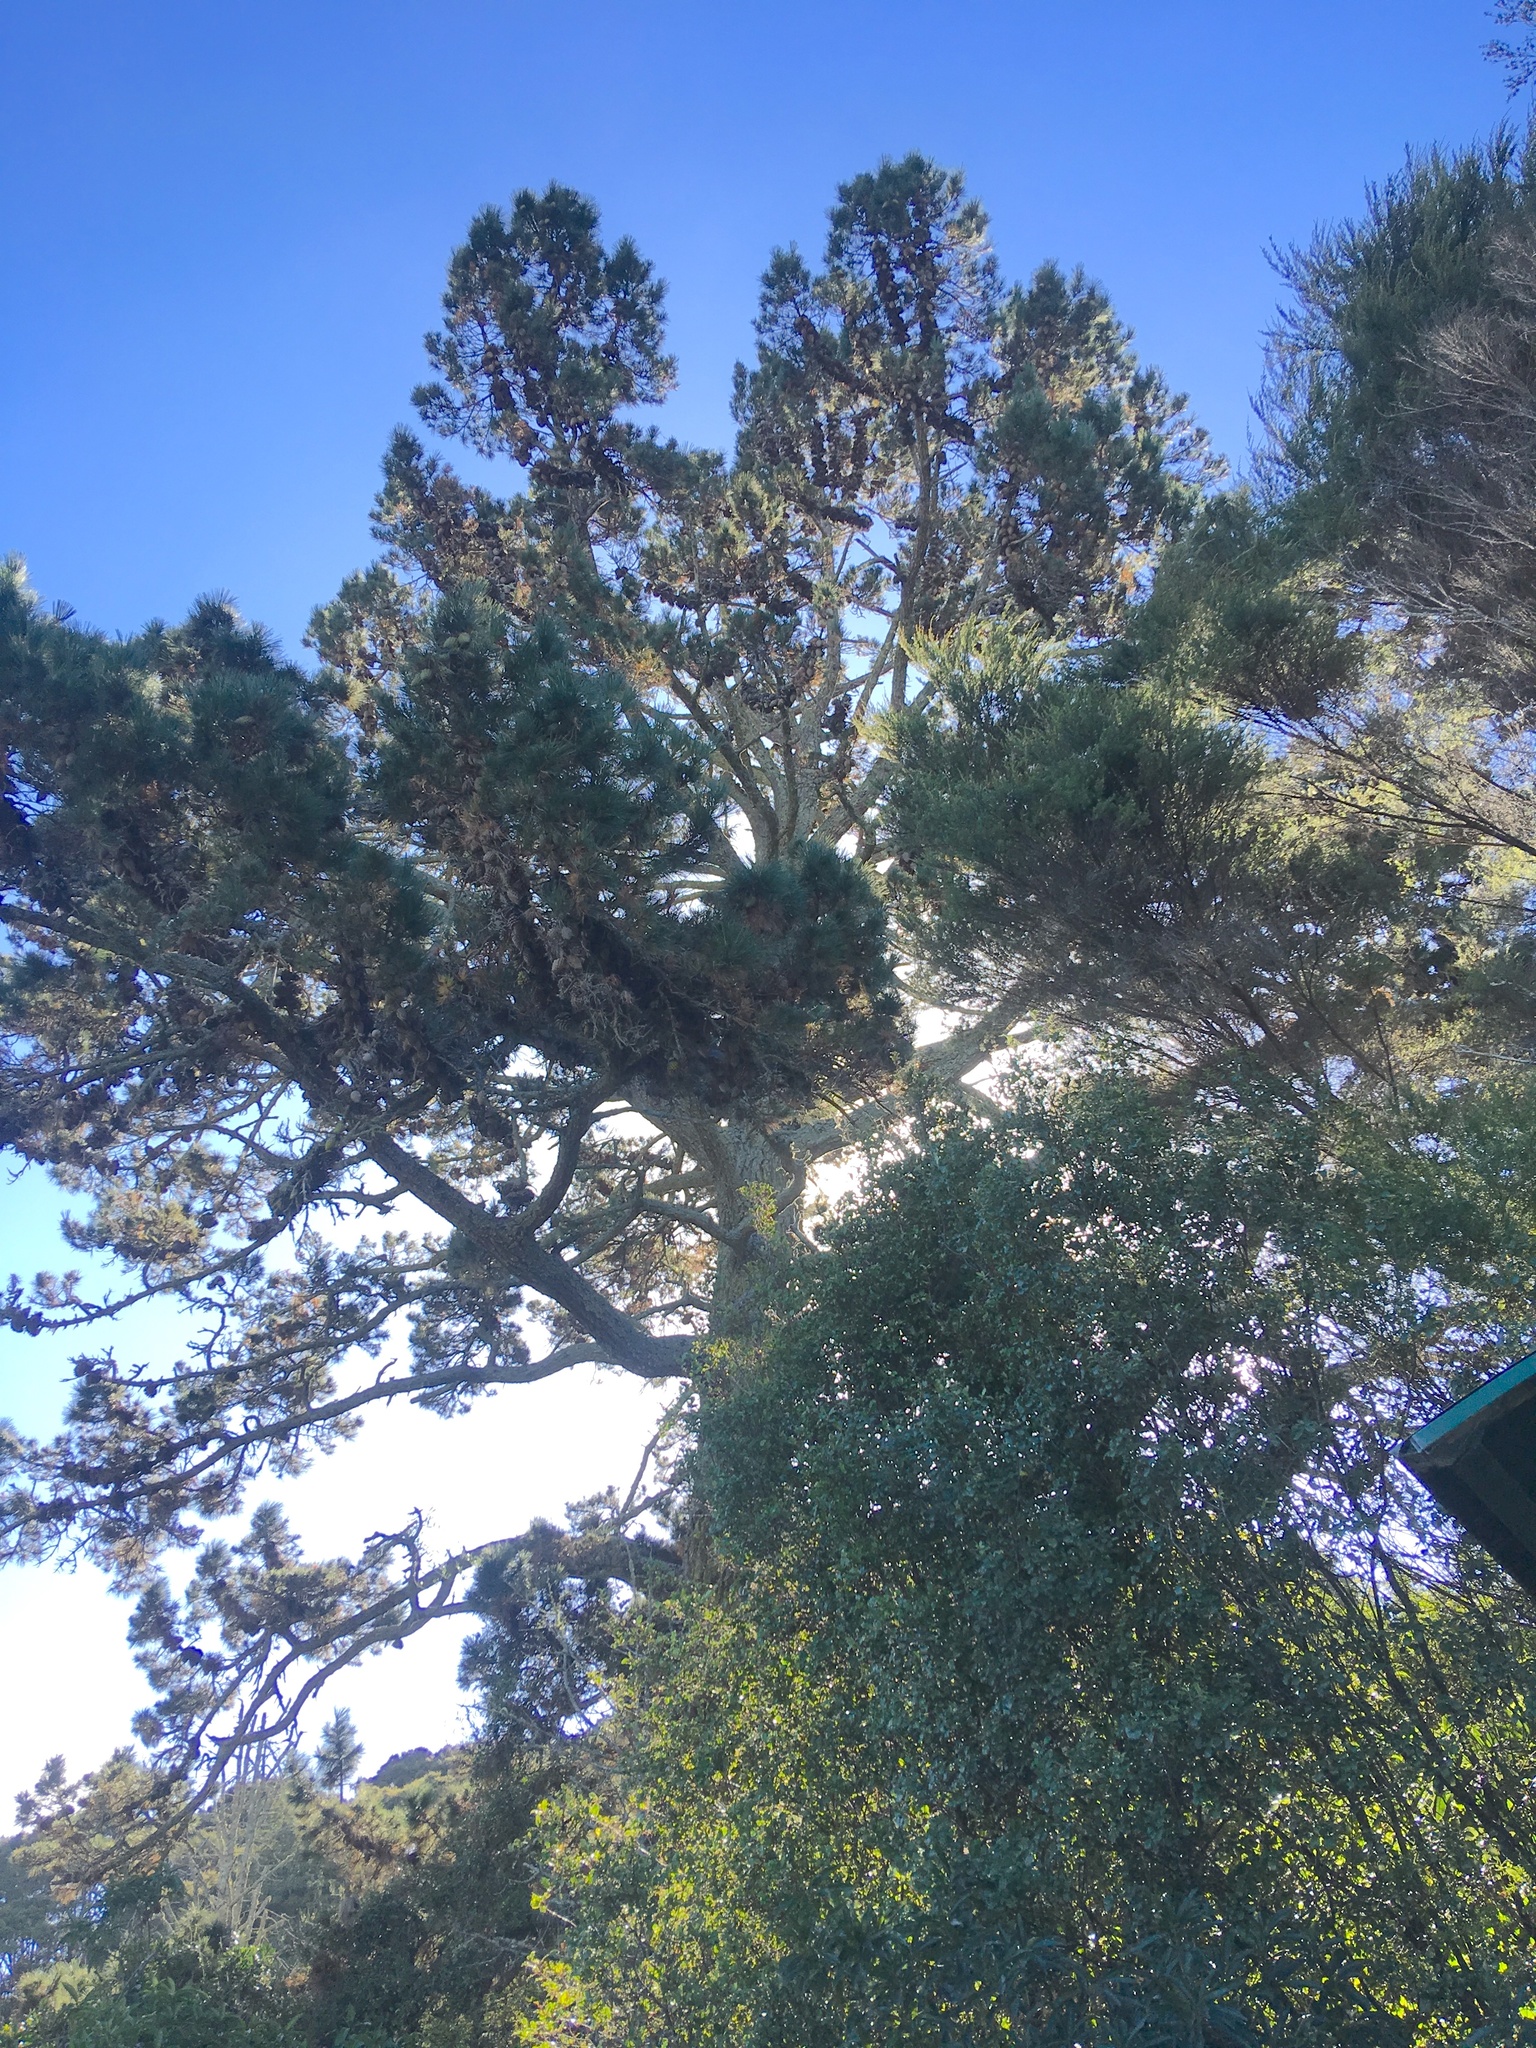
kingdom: Plantae
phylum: Tracheophyta
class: Pinopsida
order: Pinales
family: Pinaceae
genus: Pinus
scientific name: Pinus radiata
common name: Monterey pine
